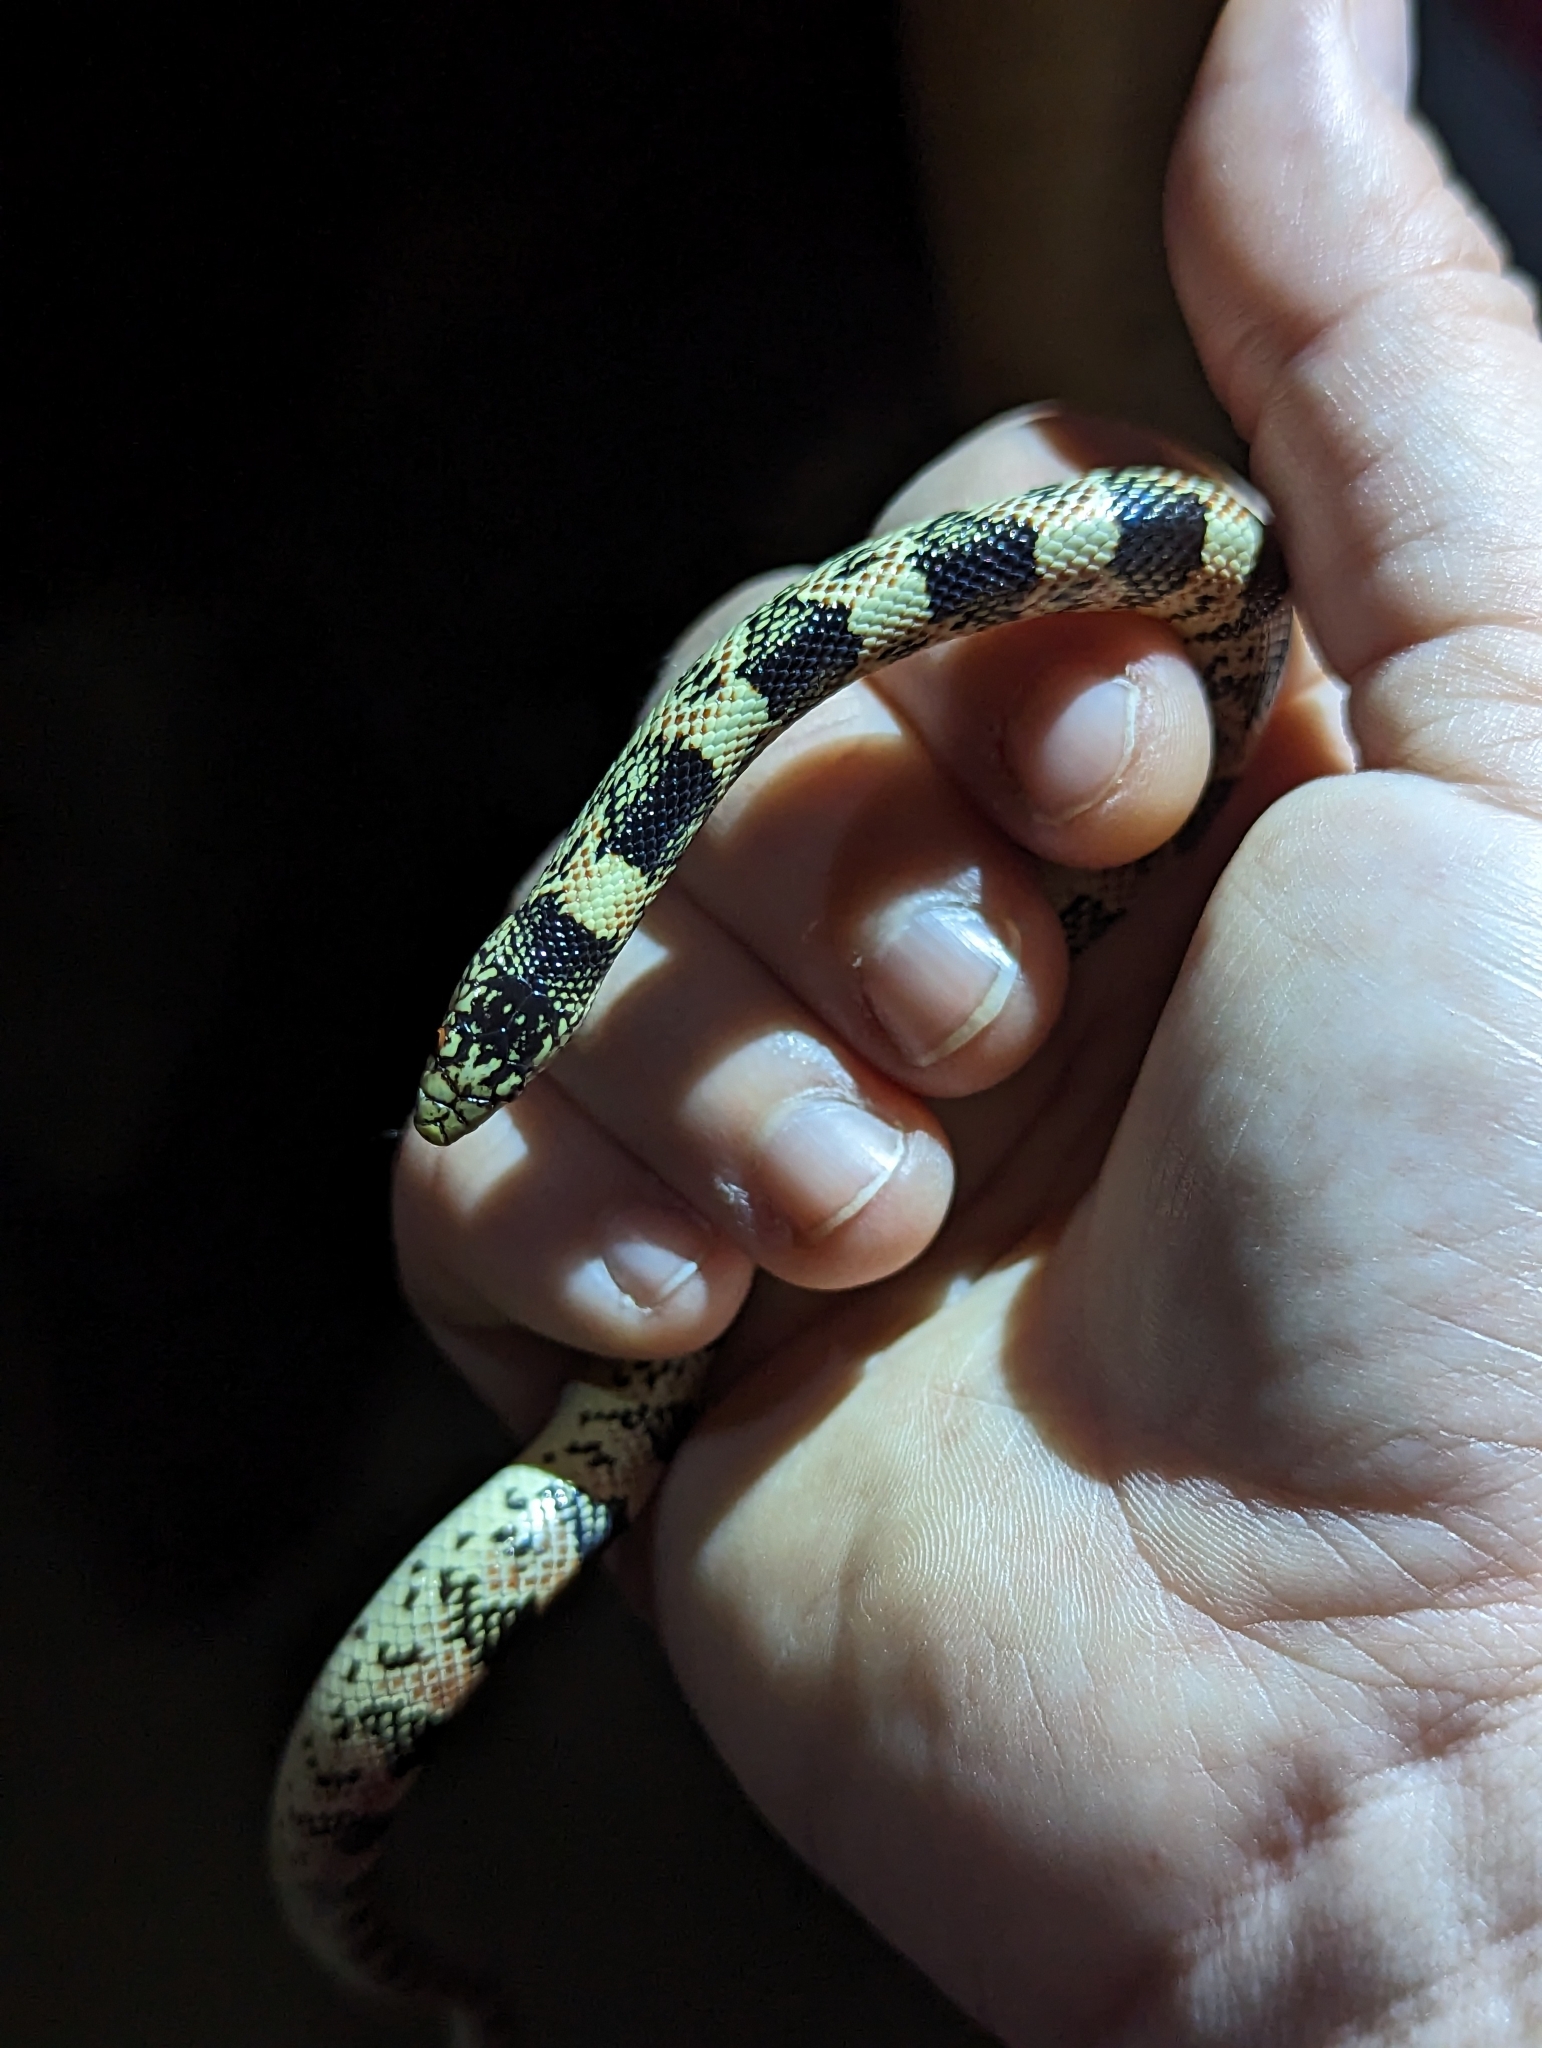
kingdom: Animalia
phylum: Chordata
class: Squamata
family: Colubridae
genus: Rhinocheilus
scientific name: Rhinocheilus lecontei
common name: Longnose snake
